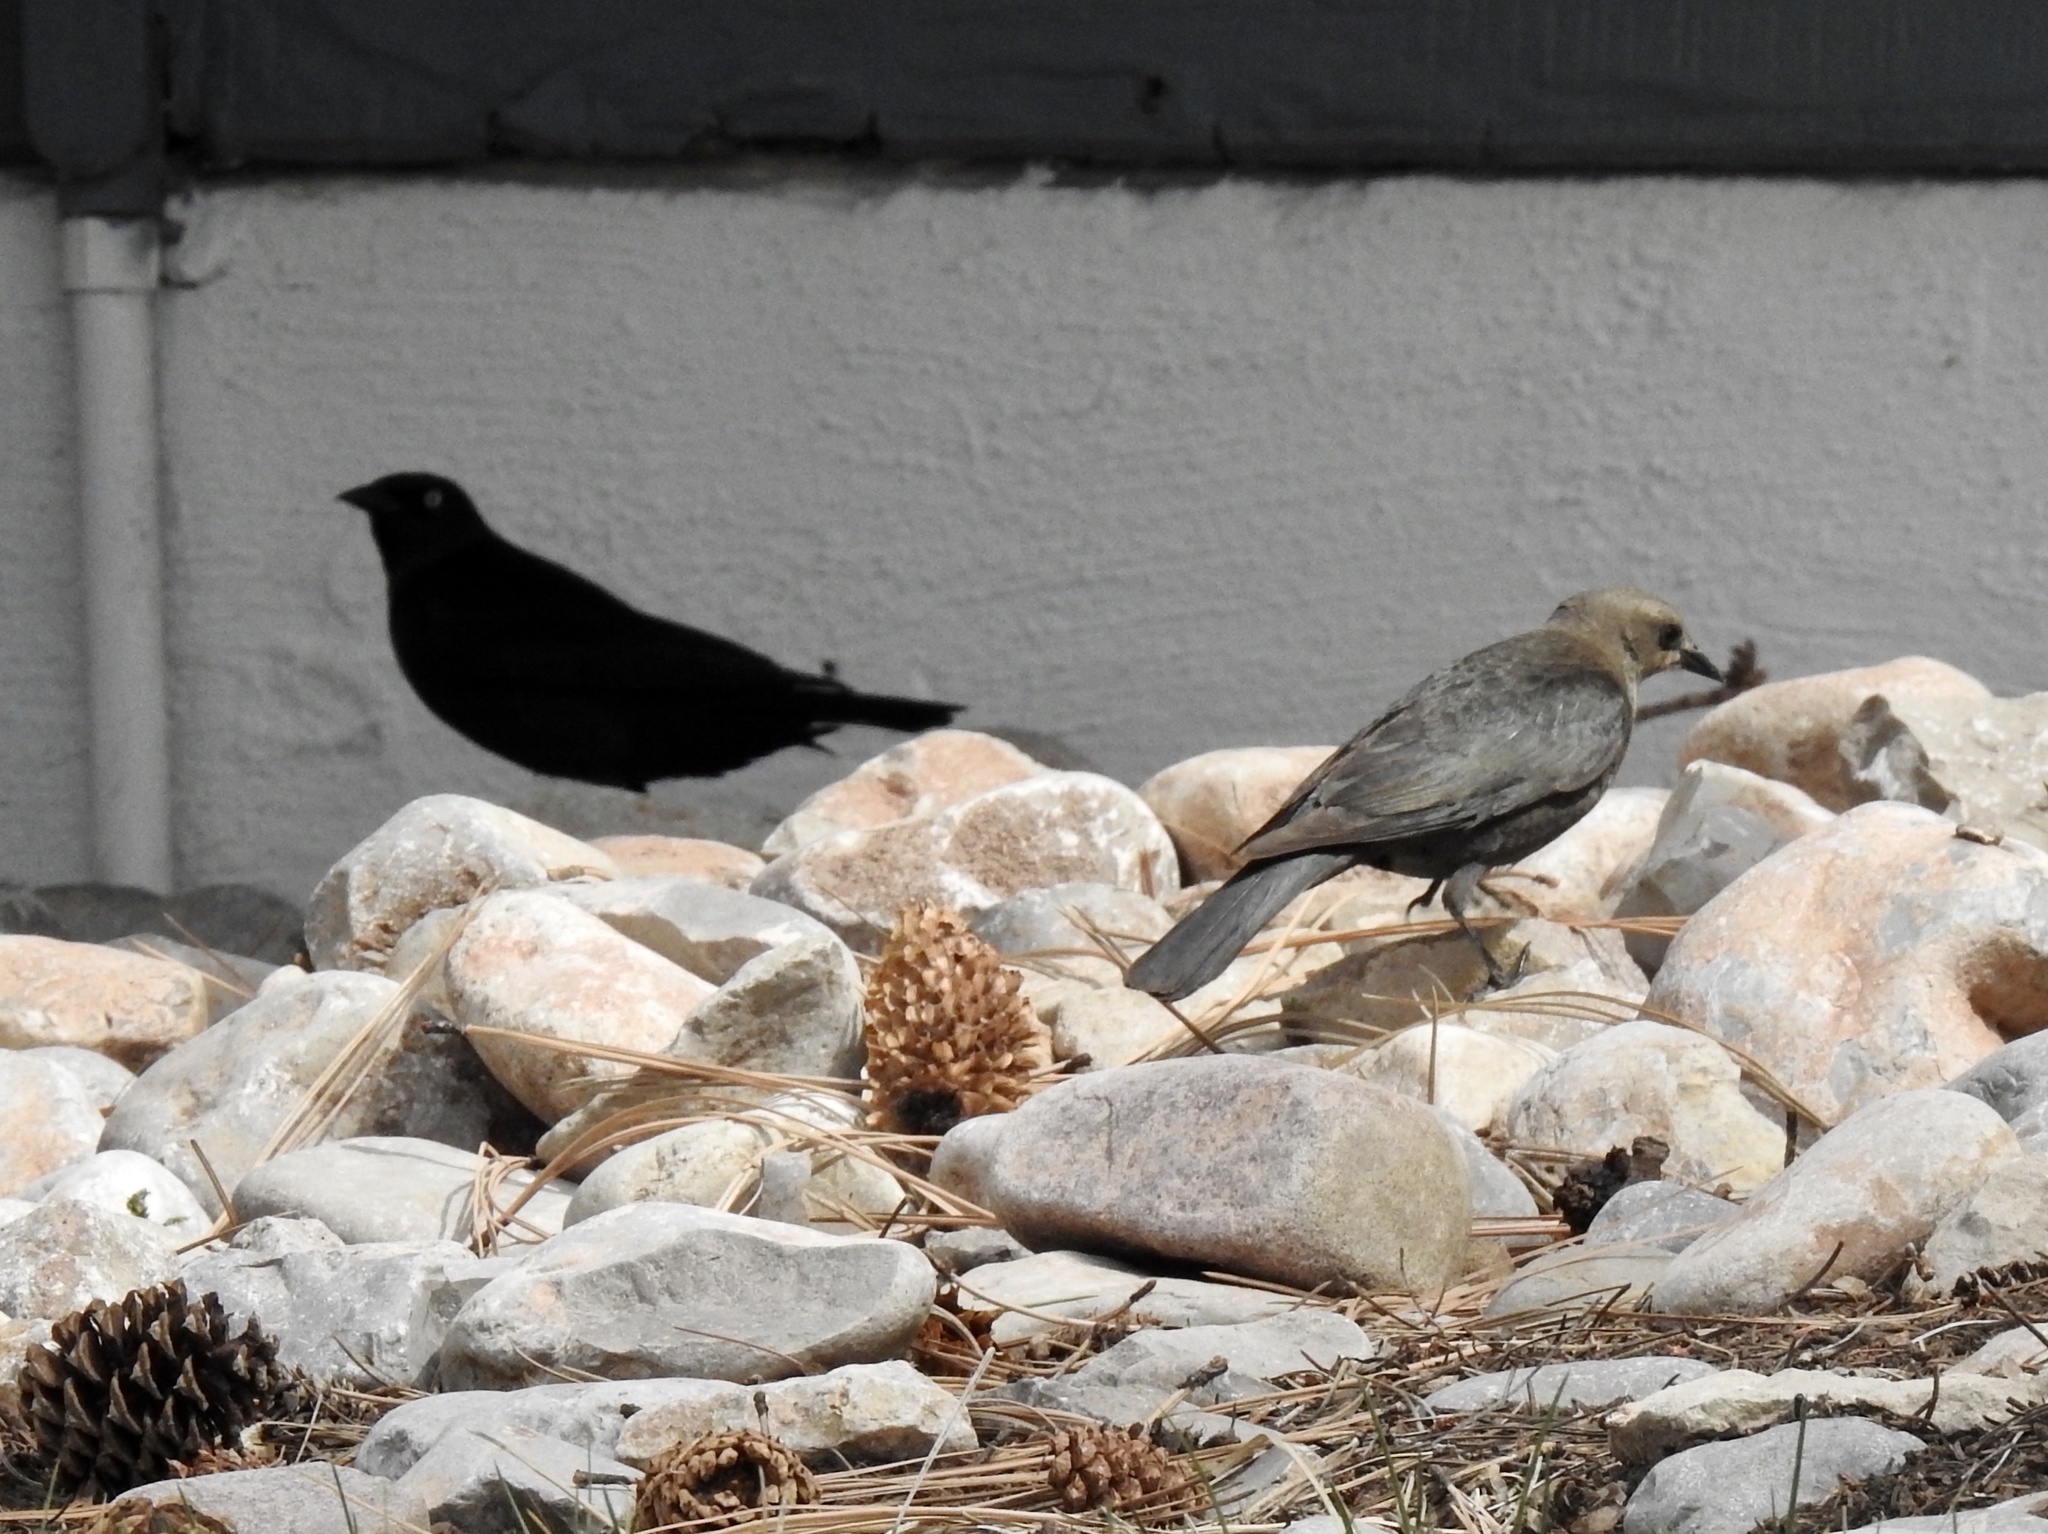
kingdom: Animalia
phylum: Chordata
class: Aves
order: Passeriformes
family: Icteridae
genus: Euphagus
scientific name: Euphagus cyanocephalus
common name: Brewer's blackbird
